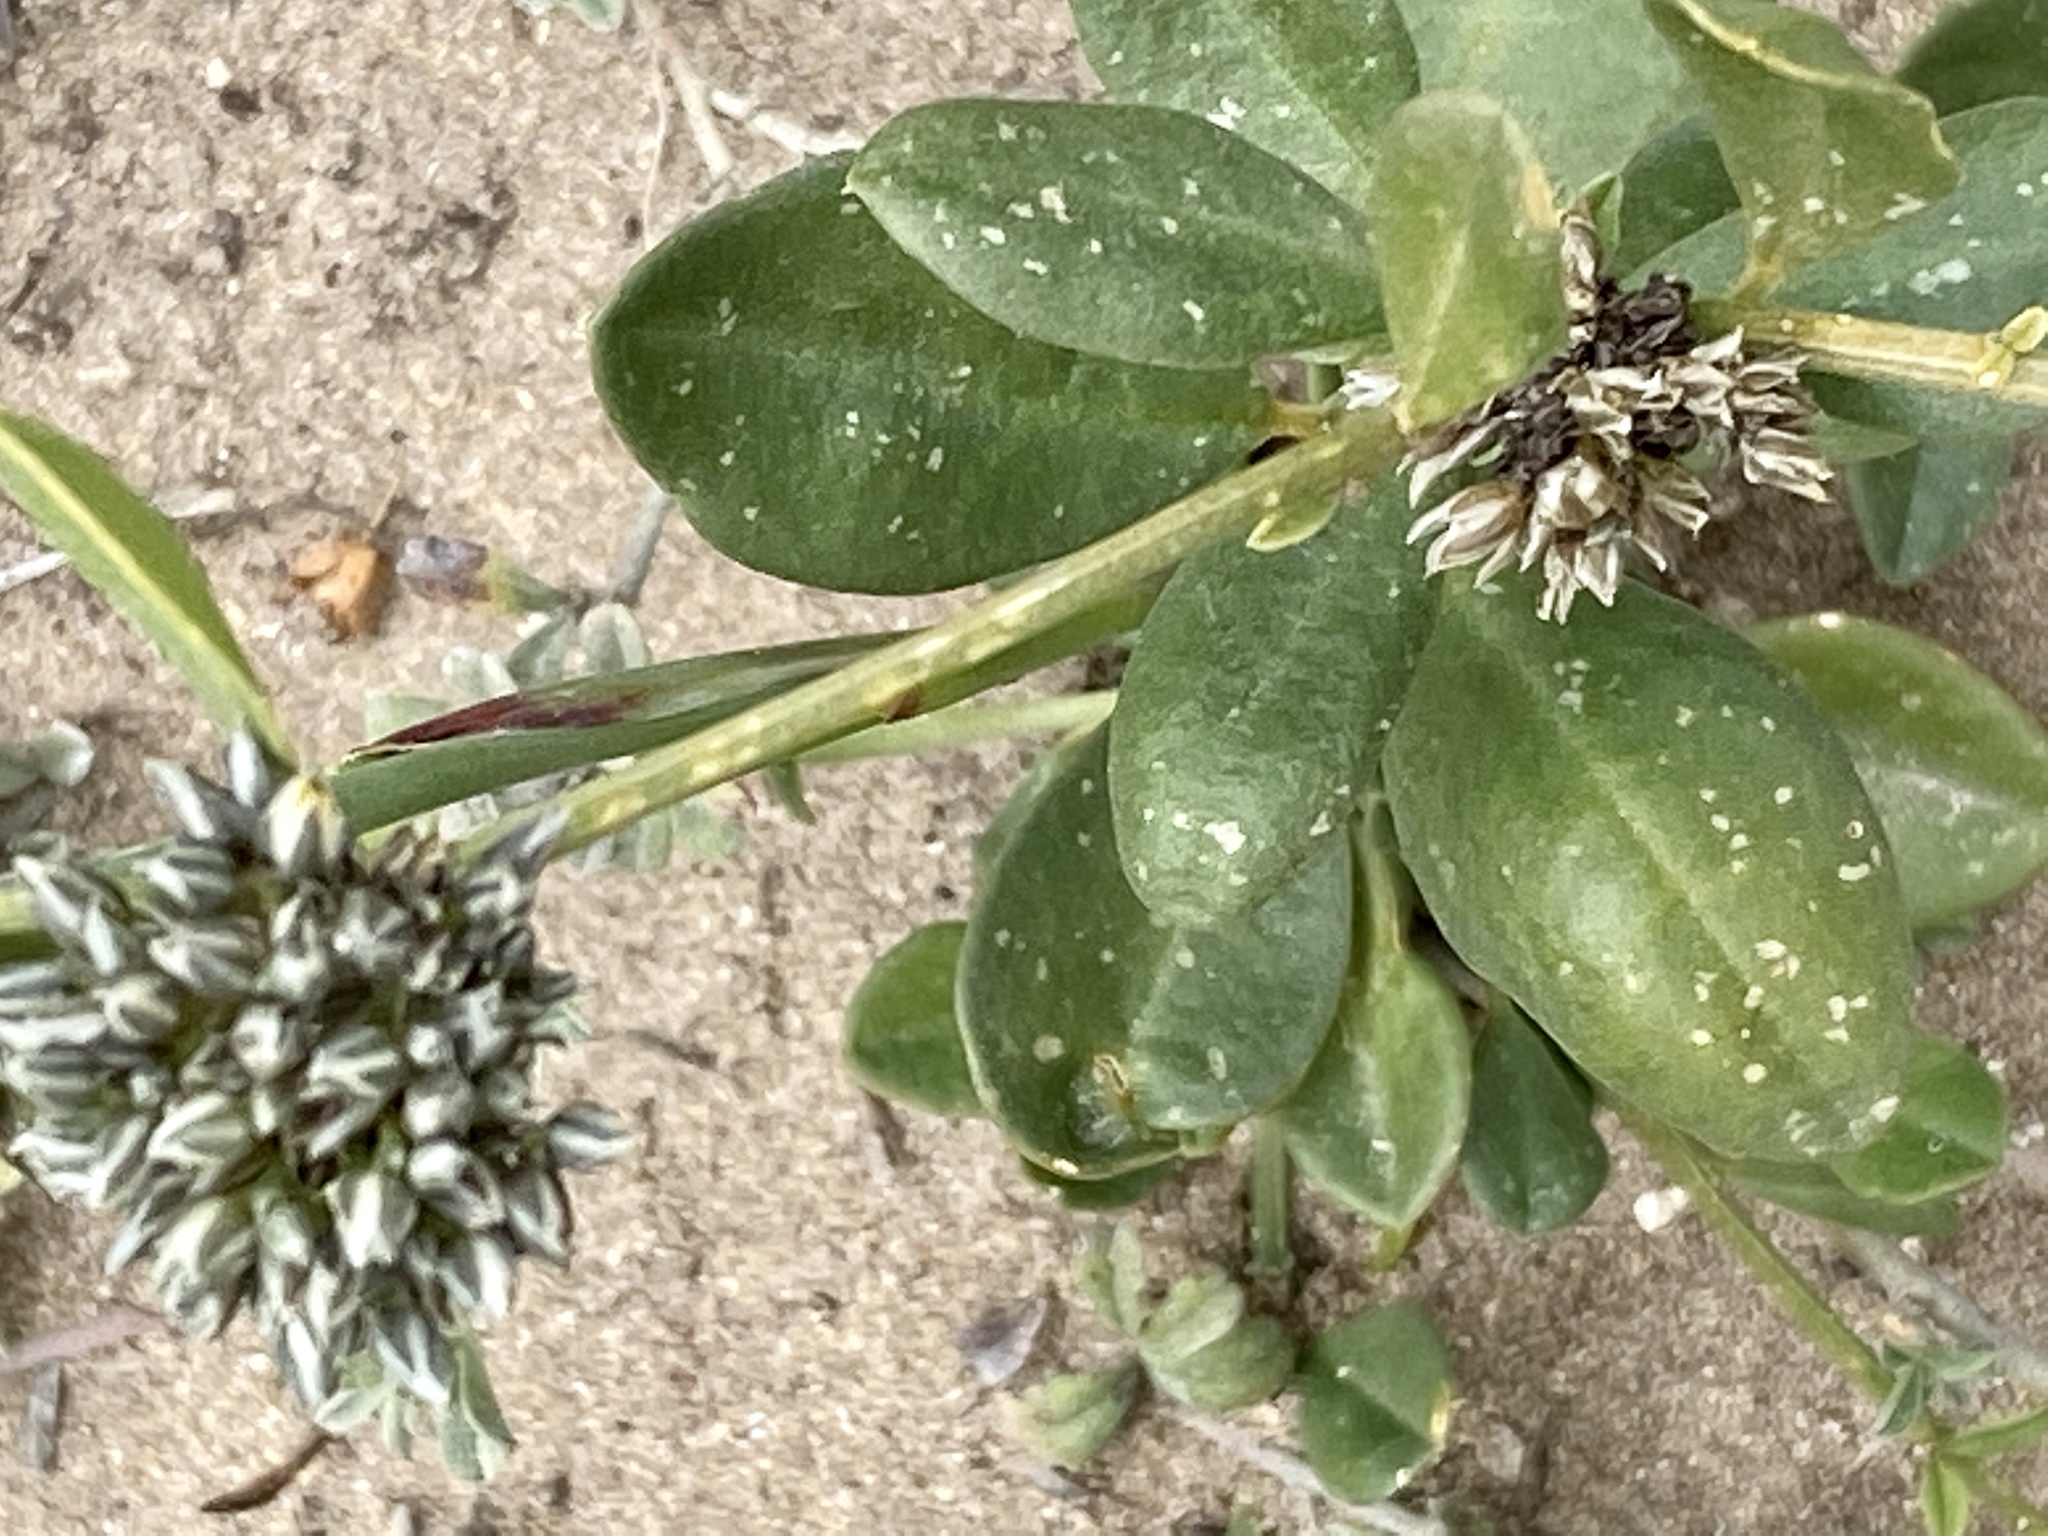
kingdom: Plantae
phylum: Tracheophyta
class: Magnoliopsida
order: Caryophyllales
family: Limeaceae
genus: Limeum
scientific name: Limeum telephioides
